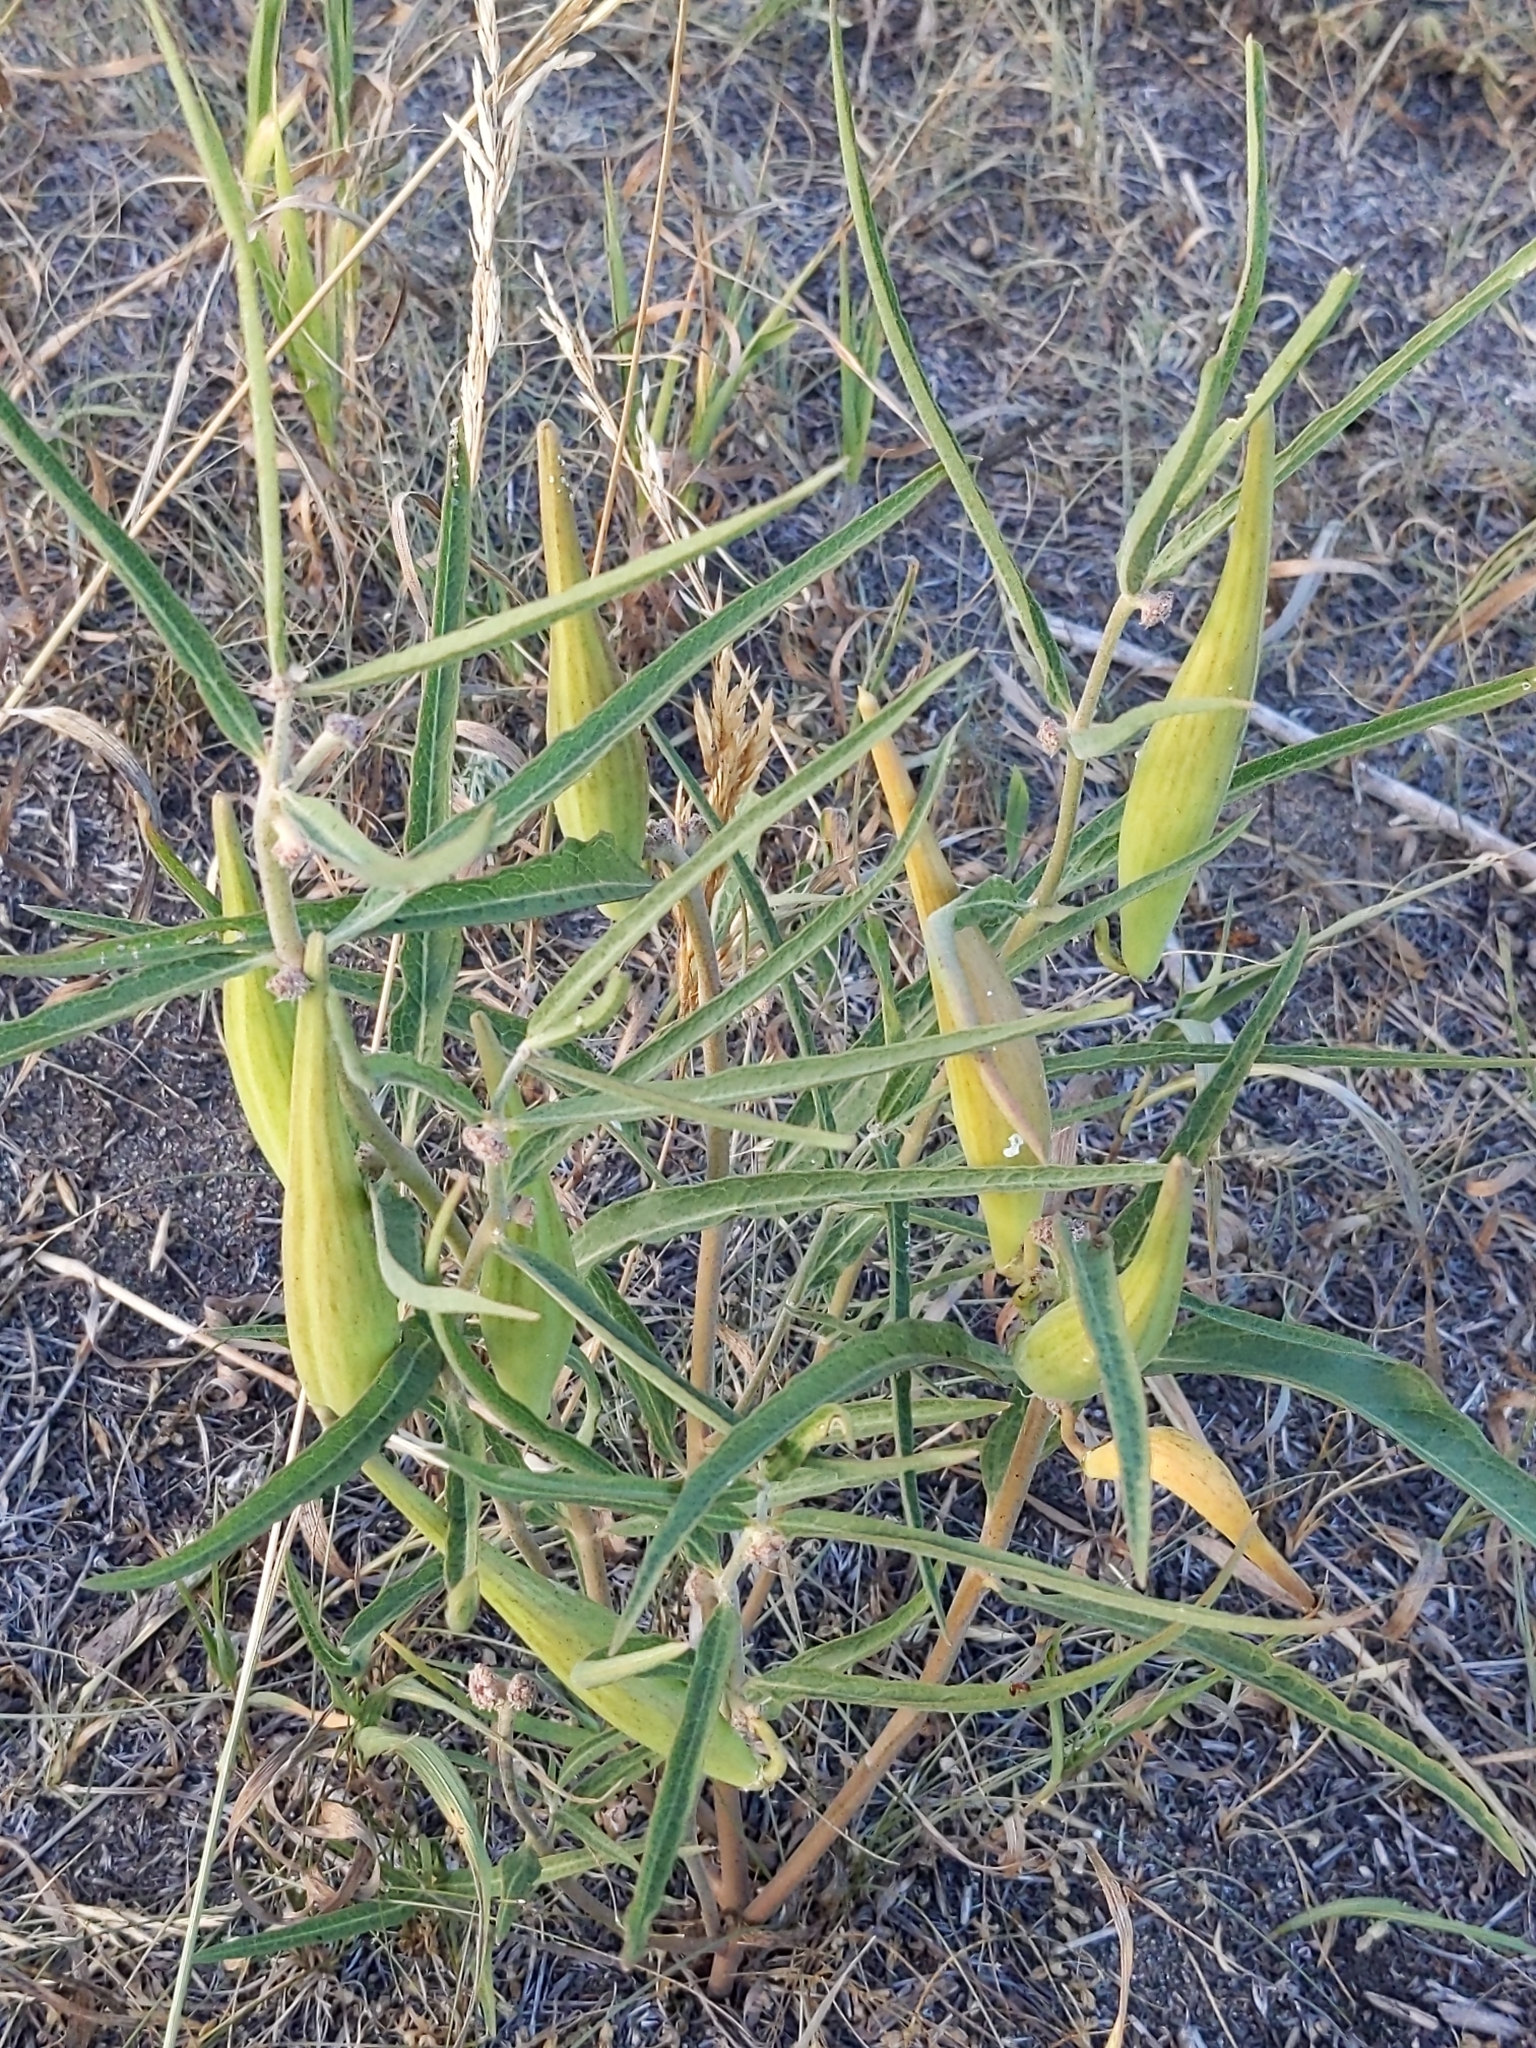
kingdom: Plantae
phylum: Tracheophyta
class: Magnoliopsida
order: Gentianales
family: Apocynaceae
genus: Asclepias
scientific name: Asclepias viridiflora
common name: Green comet milkweed
